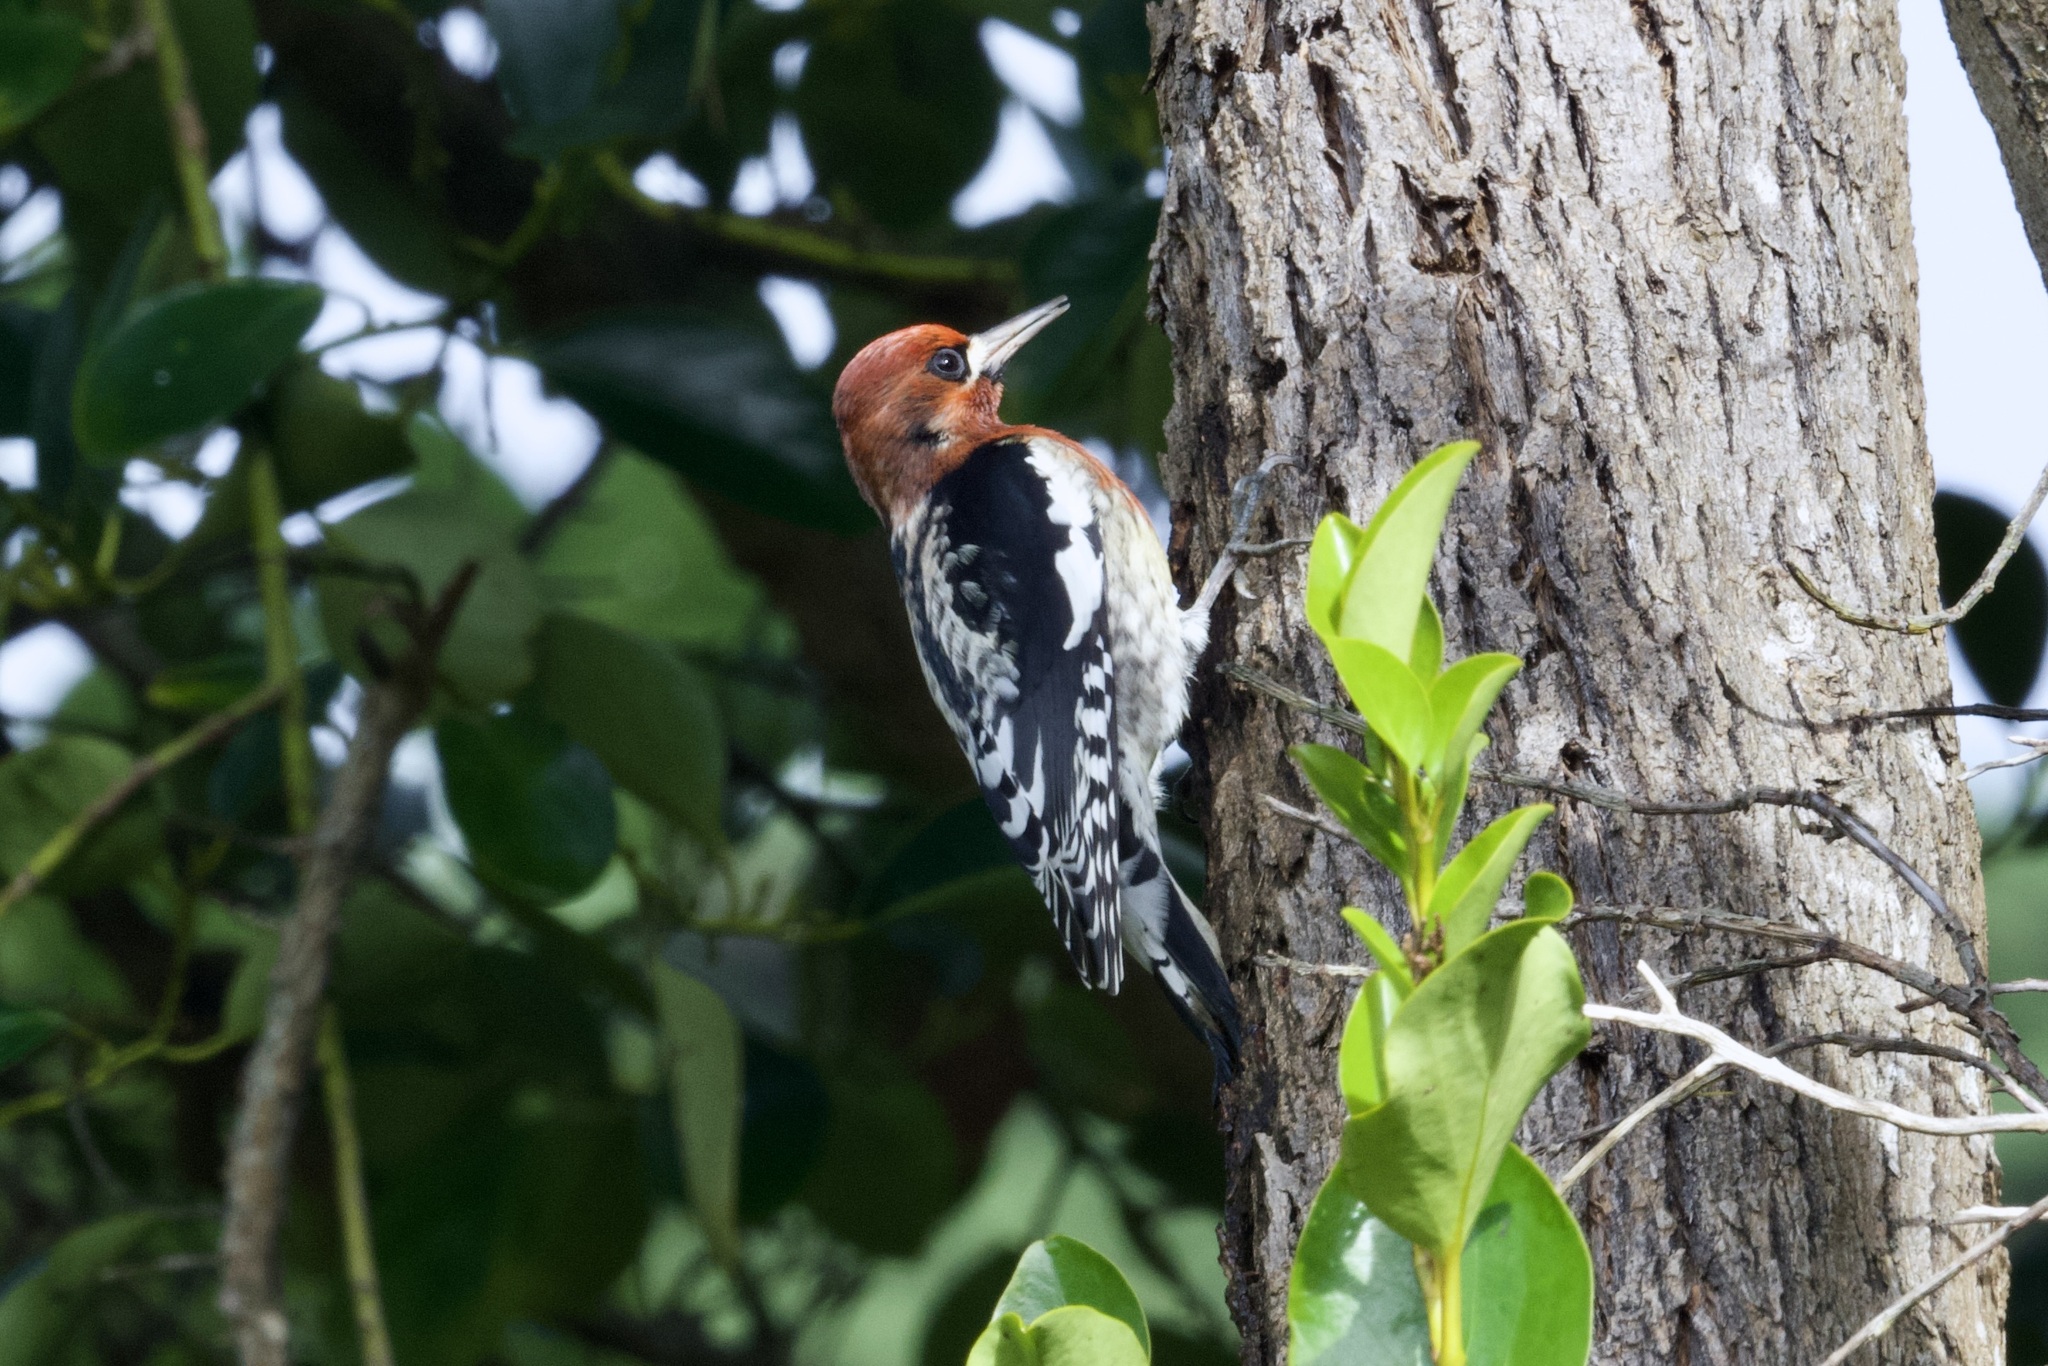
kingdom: Animalia
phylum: Chordata
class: Aves
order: Piciformes
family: Picidae
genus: Sphyrapicus
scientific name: Sphyrapicus ruber
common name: Red-breasted sapsucker
